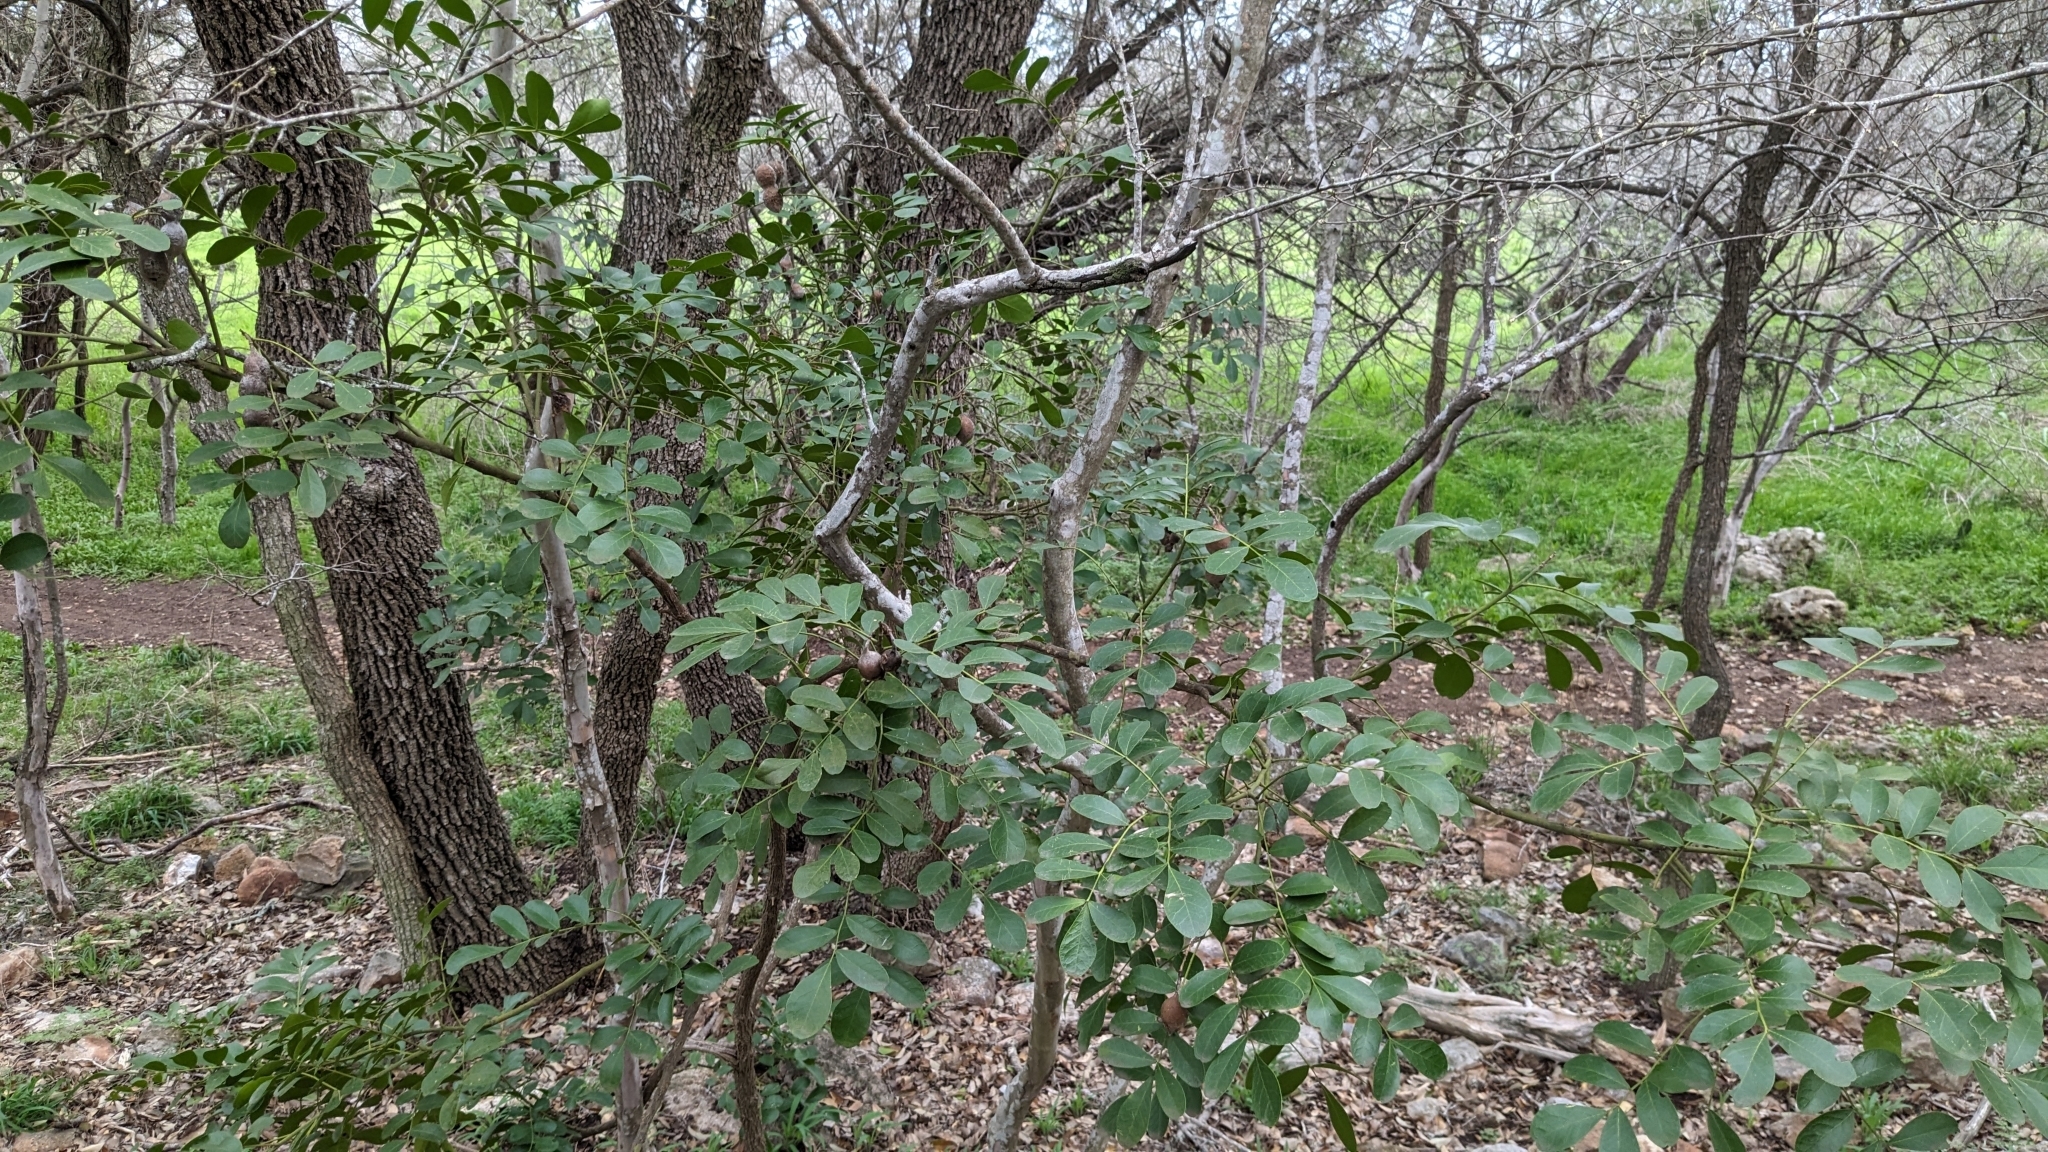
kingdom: Plantae
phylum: Tracheophyta
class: Magnoliopsida
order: Fabales
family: Fabaceae
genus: Dermatophyllum
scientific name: Dermatophyllum secundiflorum
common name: Texas-mountain-laurel
